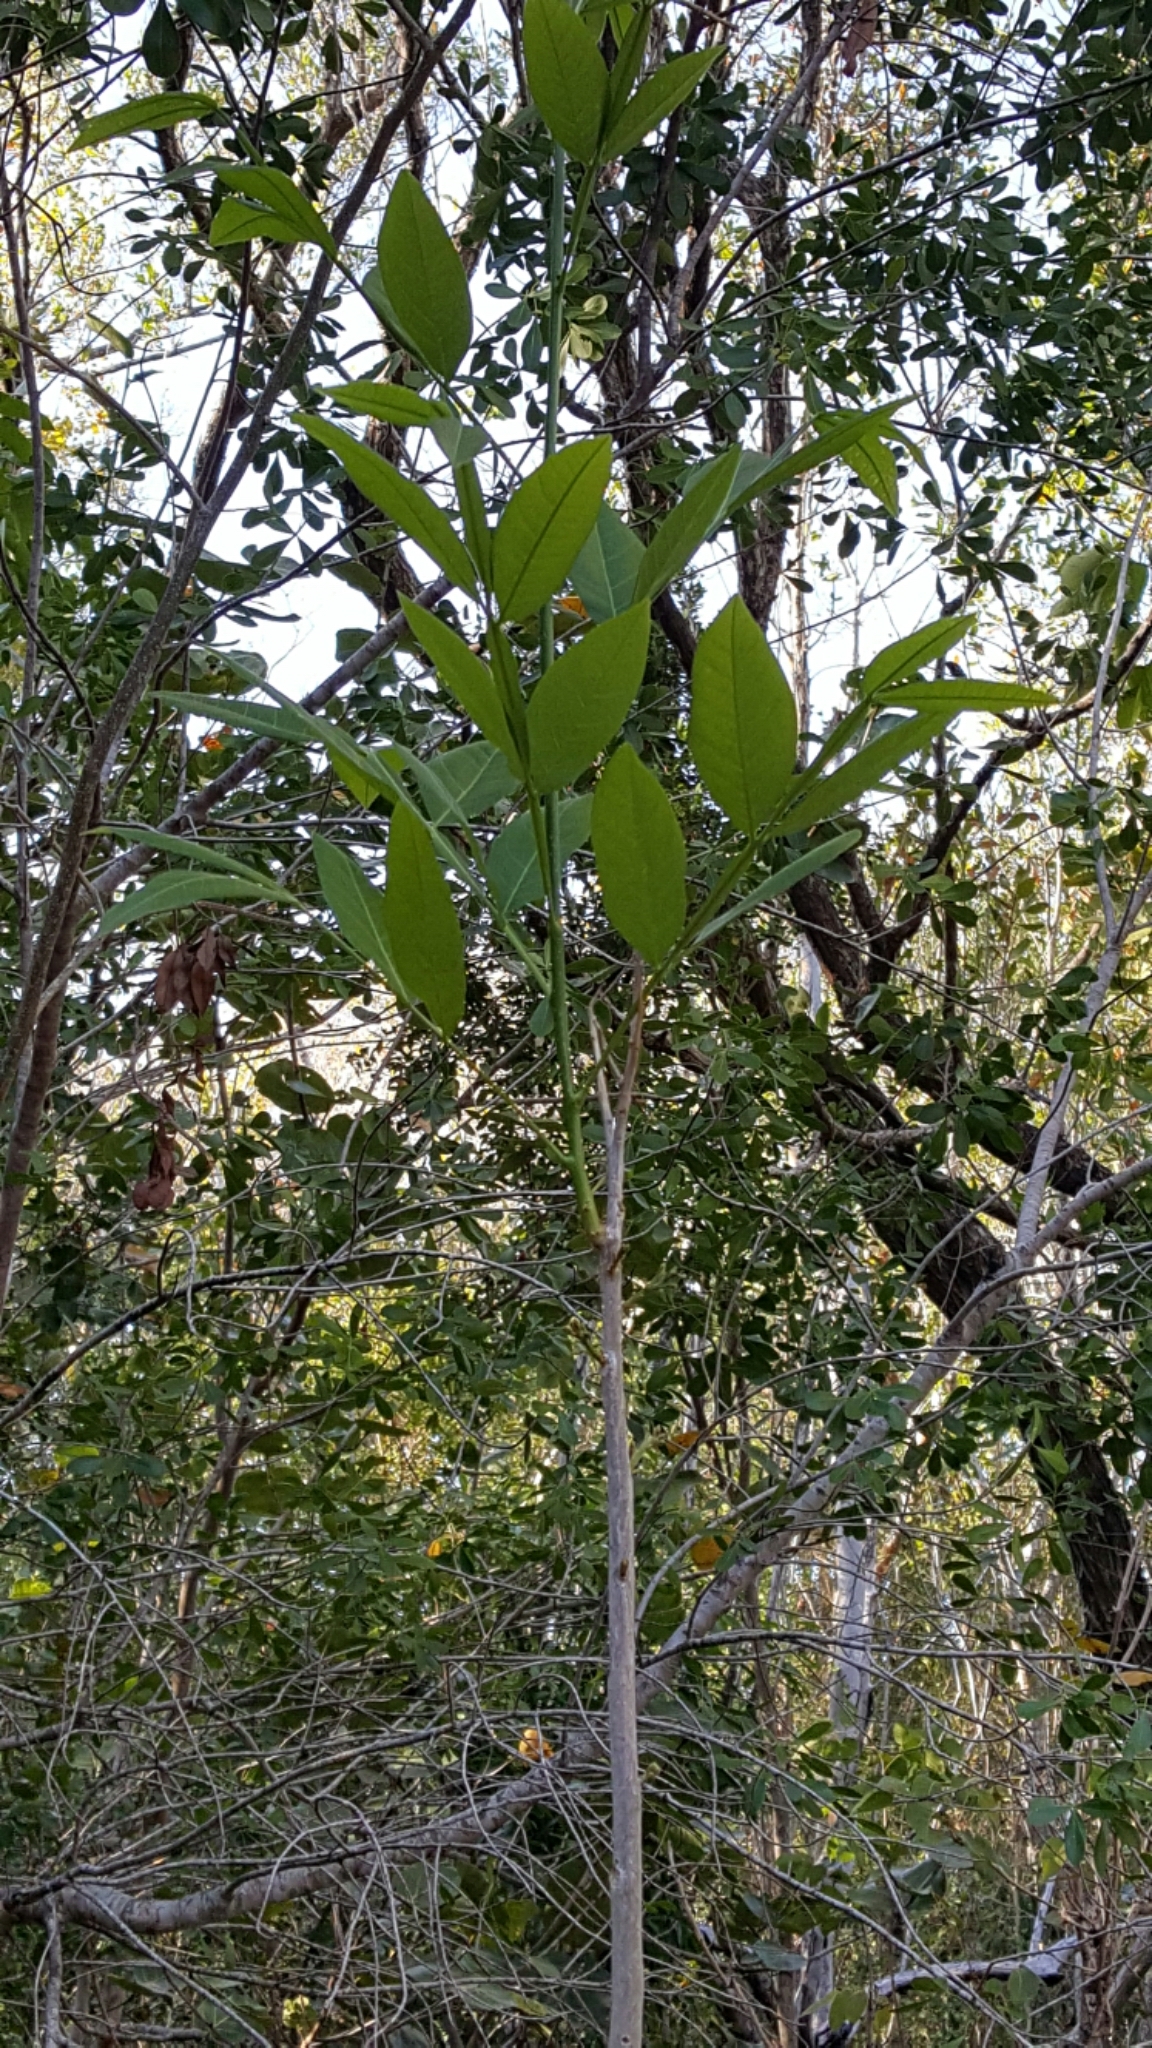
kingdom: Plantae
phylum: Tracheophyta
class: Magnoliopsida
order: Sapindales
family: Sapindaceae
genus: Sapindus
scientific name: Sapindus saponaria
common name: Wingleaf soapberry
